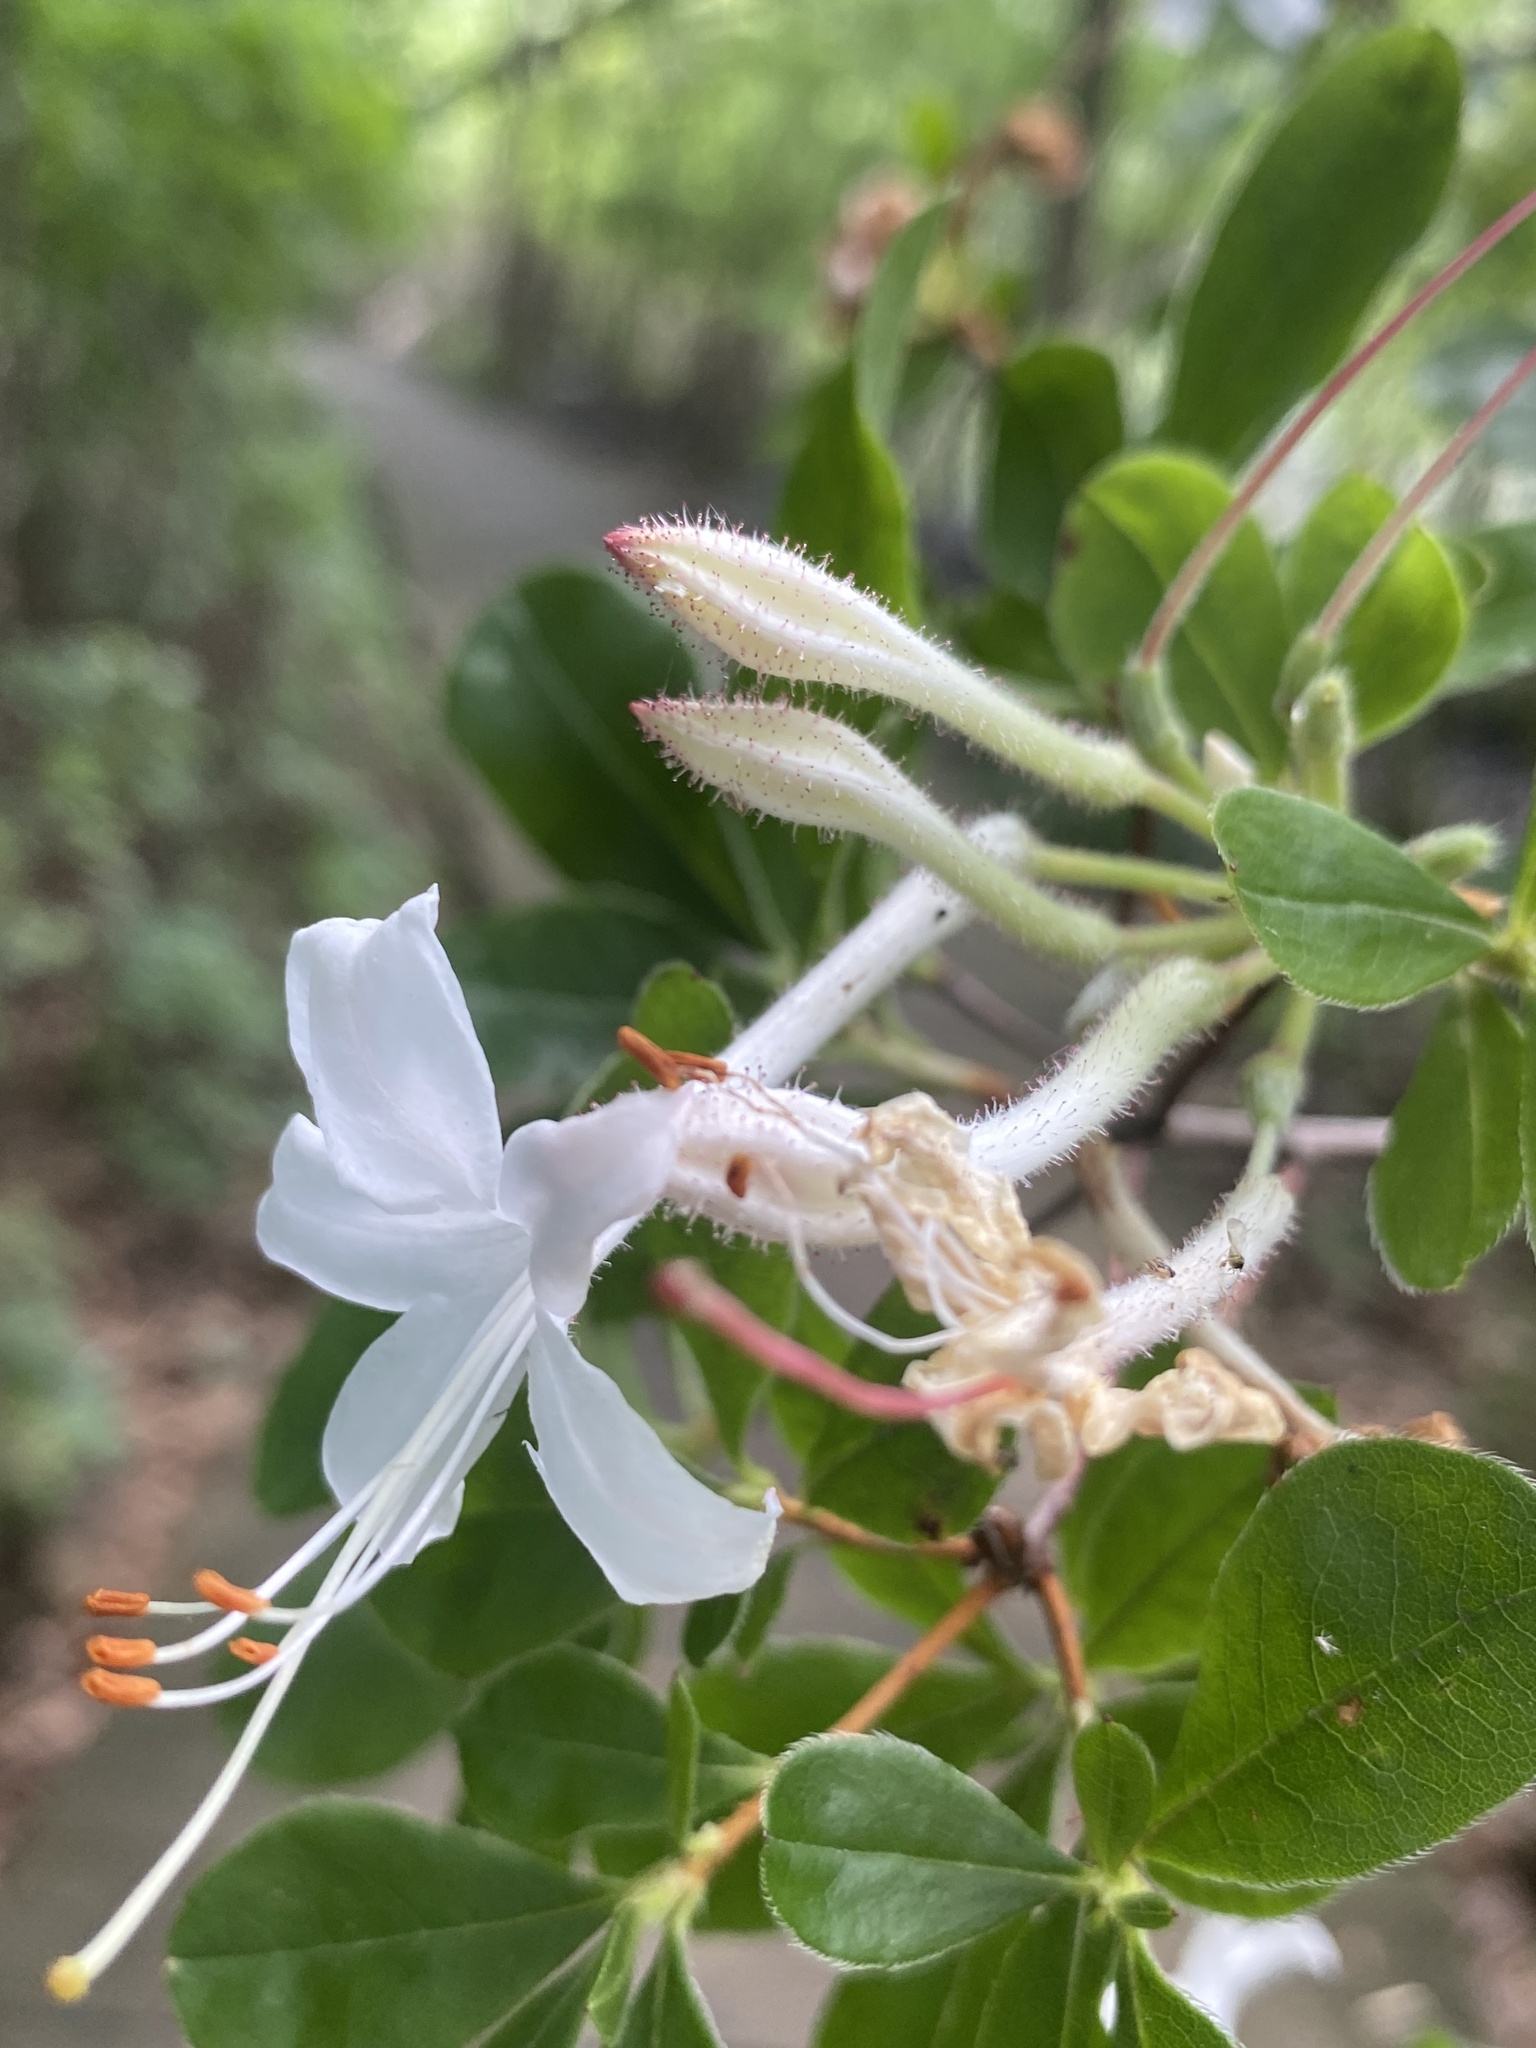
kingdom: Plantae
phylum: Tracheophyta
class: Magnoliopsida
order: Ericales
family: Ericaceae
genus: Rhododendron
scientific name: Rhododendron viscosum
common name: Clammy azalea
